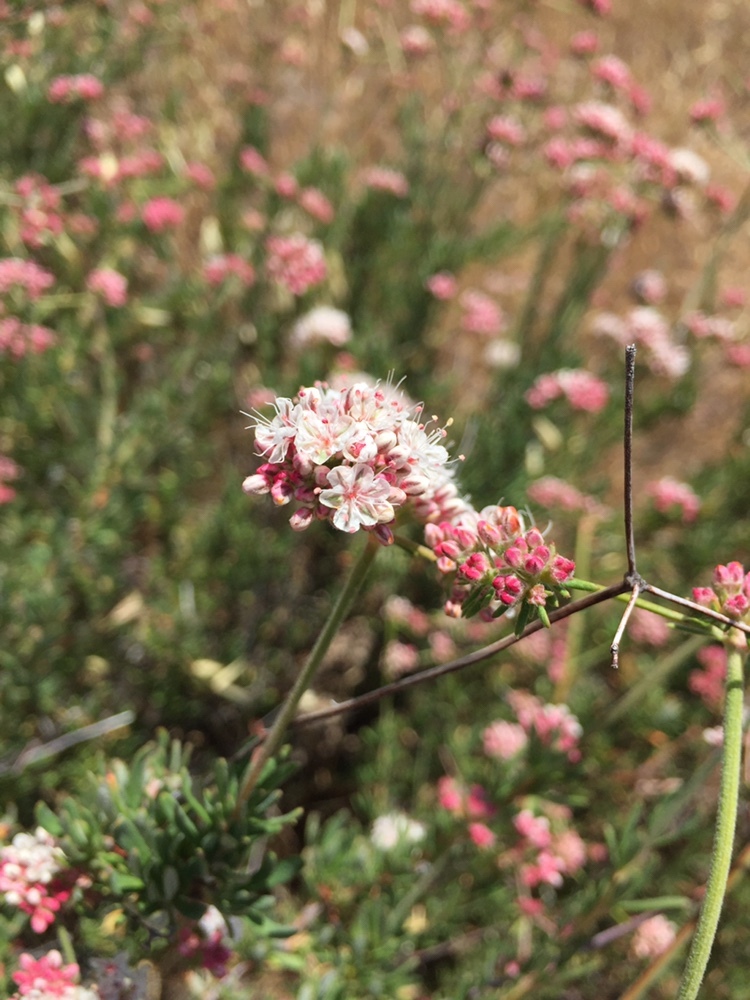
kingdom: Plantae
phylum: Tracheophyta
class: Magnoliopsida
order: Caryophyllales
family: Polygonaceae
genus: Eriogonum
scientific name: Eriogonum fasciculatum
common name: California wild buckwheat
